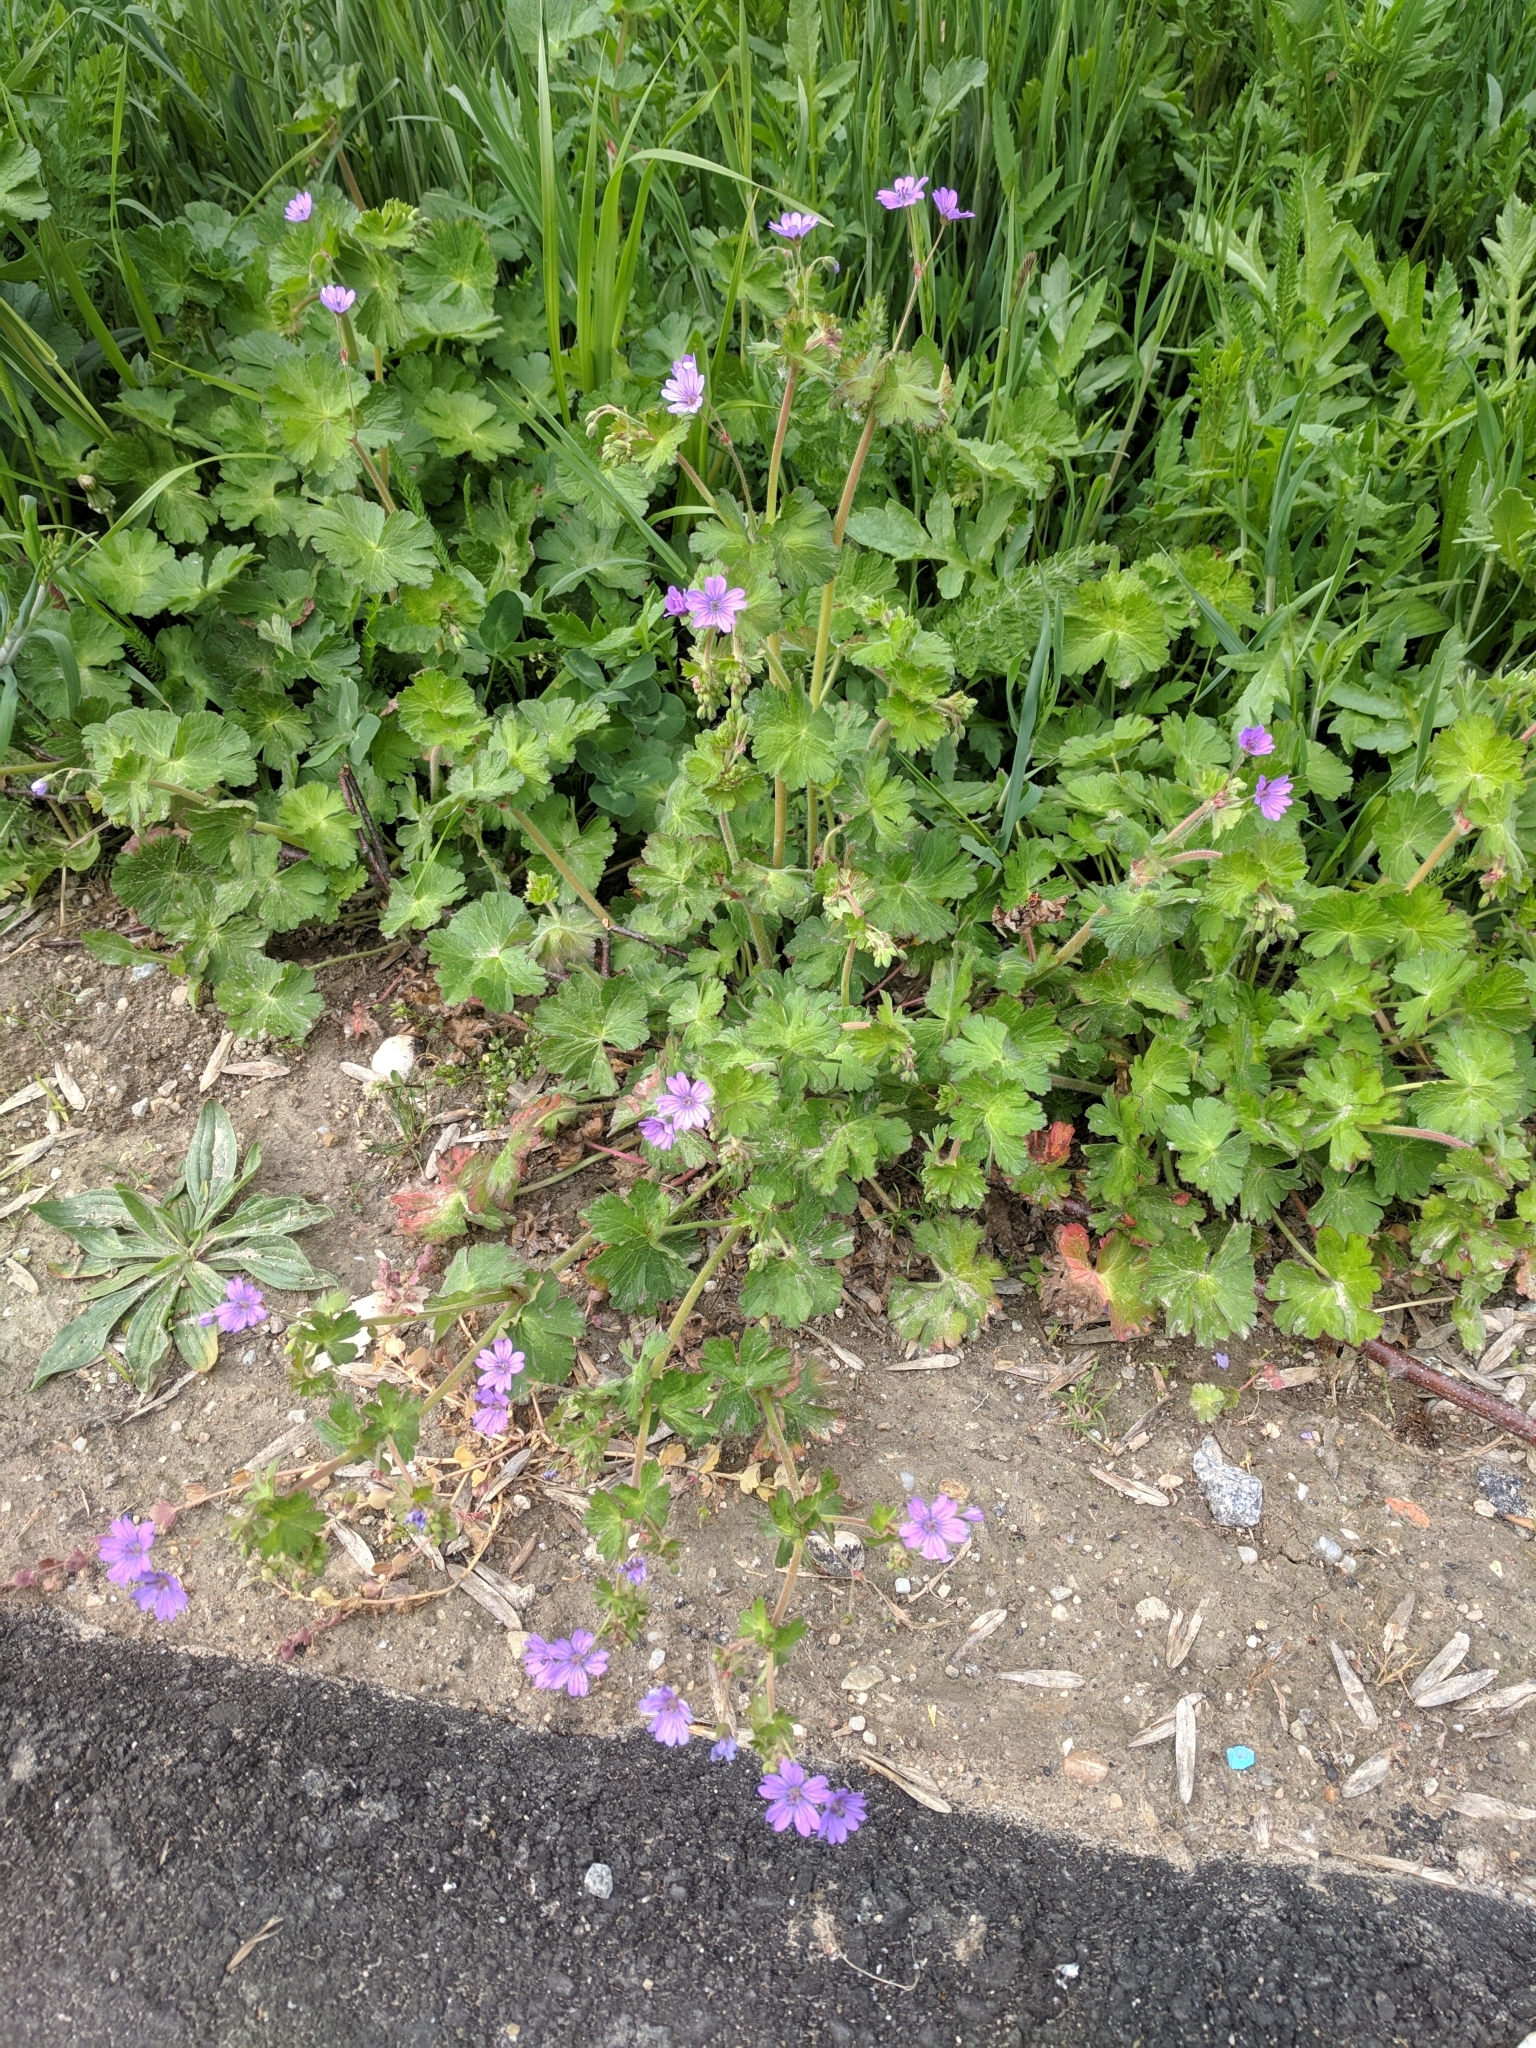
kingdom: Plantae
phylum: Tracheophyta
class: Magnoliopsida
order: Geraniales
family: Geraniaceae
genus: Geranium
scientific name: Geranium pyrenaicum
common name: Hedgerow crane's-bill
